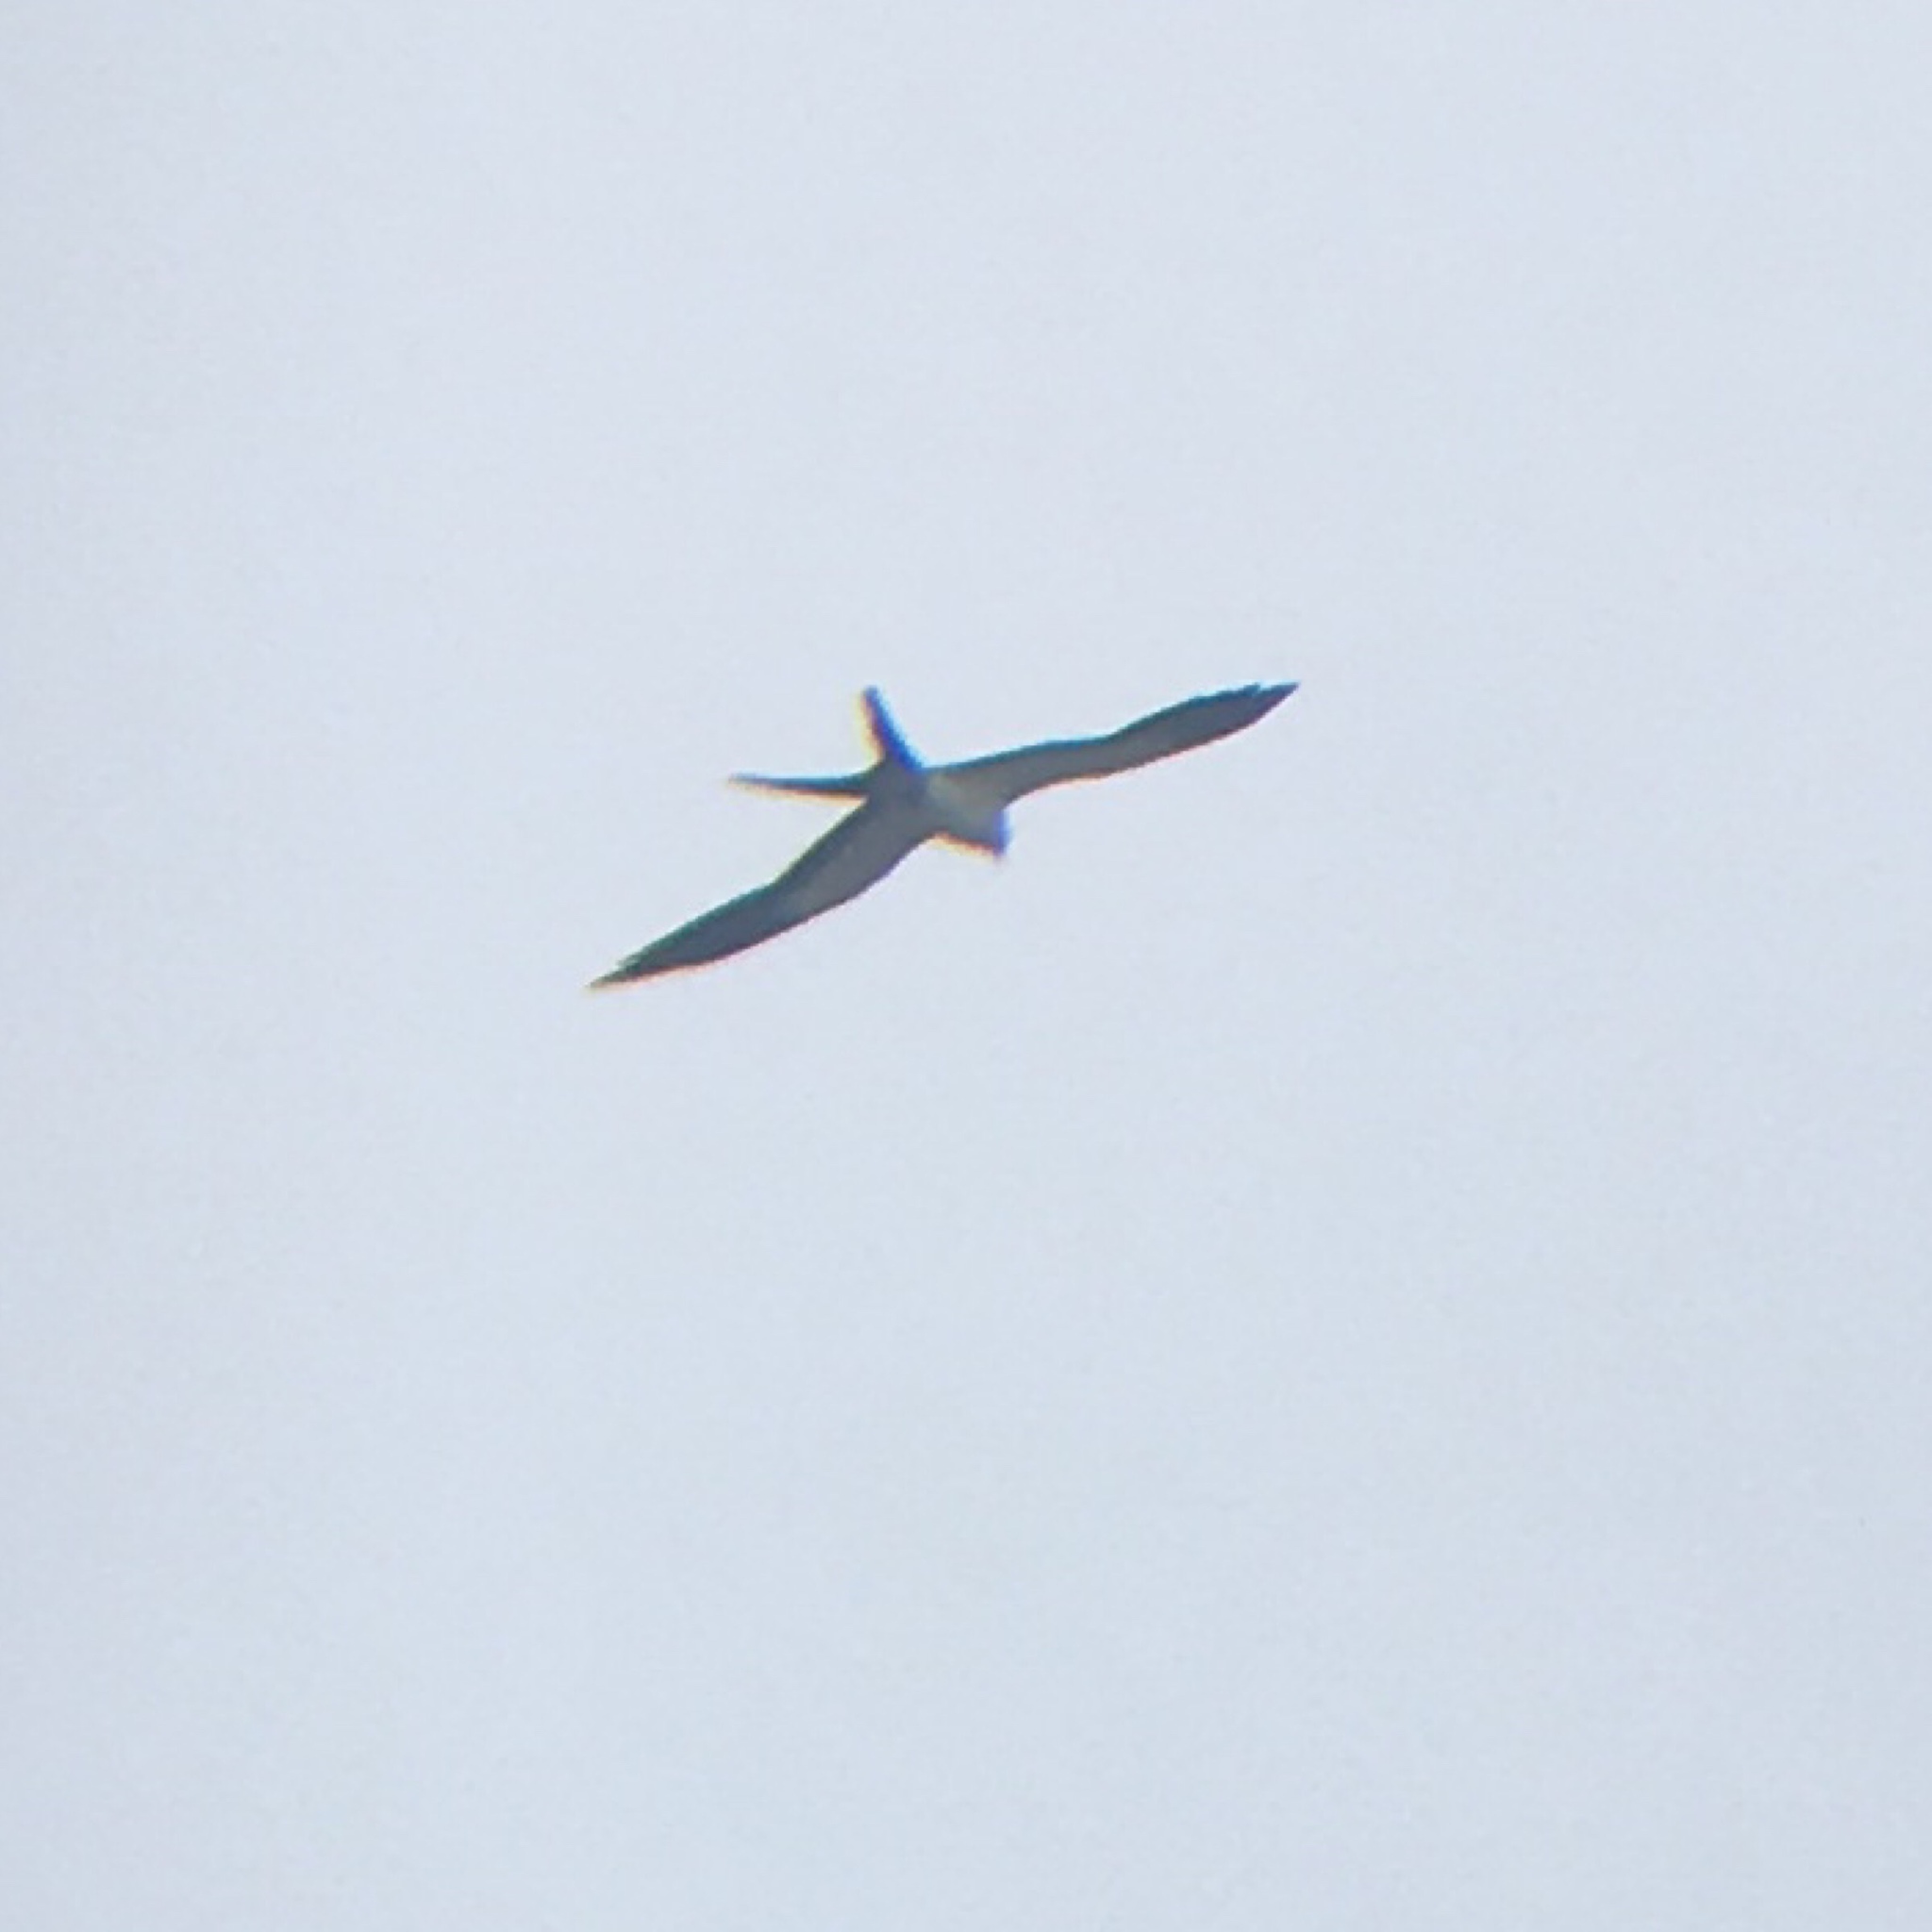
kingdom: Animalia
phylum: Chordata
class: Aves
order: Accipitriformes
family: Accipitridae
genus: Elanoides
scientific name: Elanoides forficatus
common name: Swallow-tailed kite
